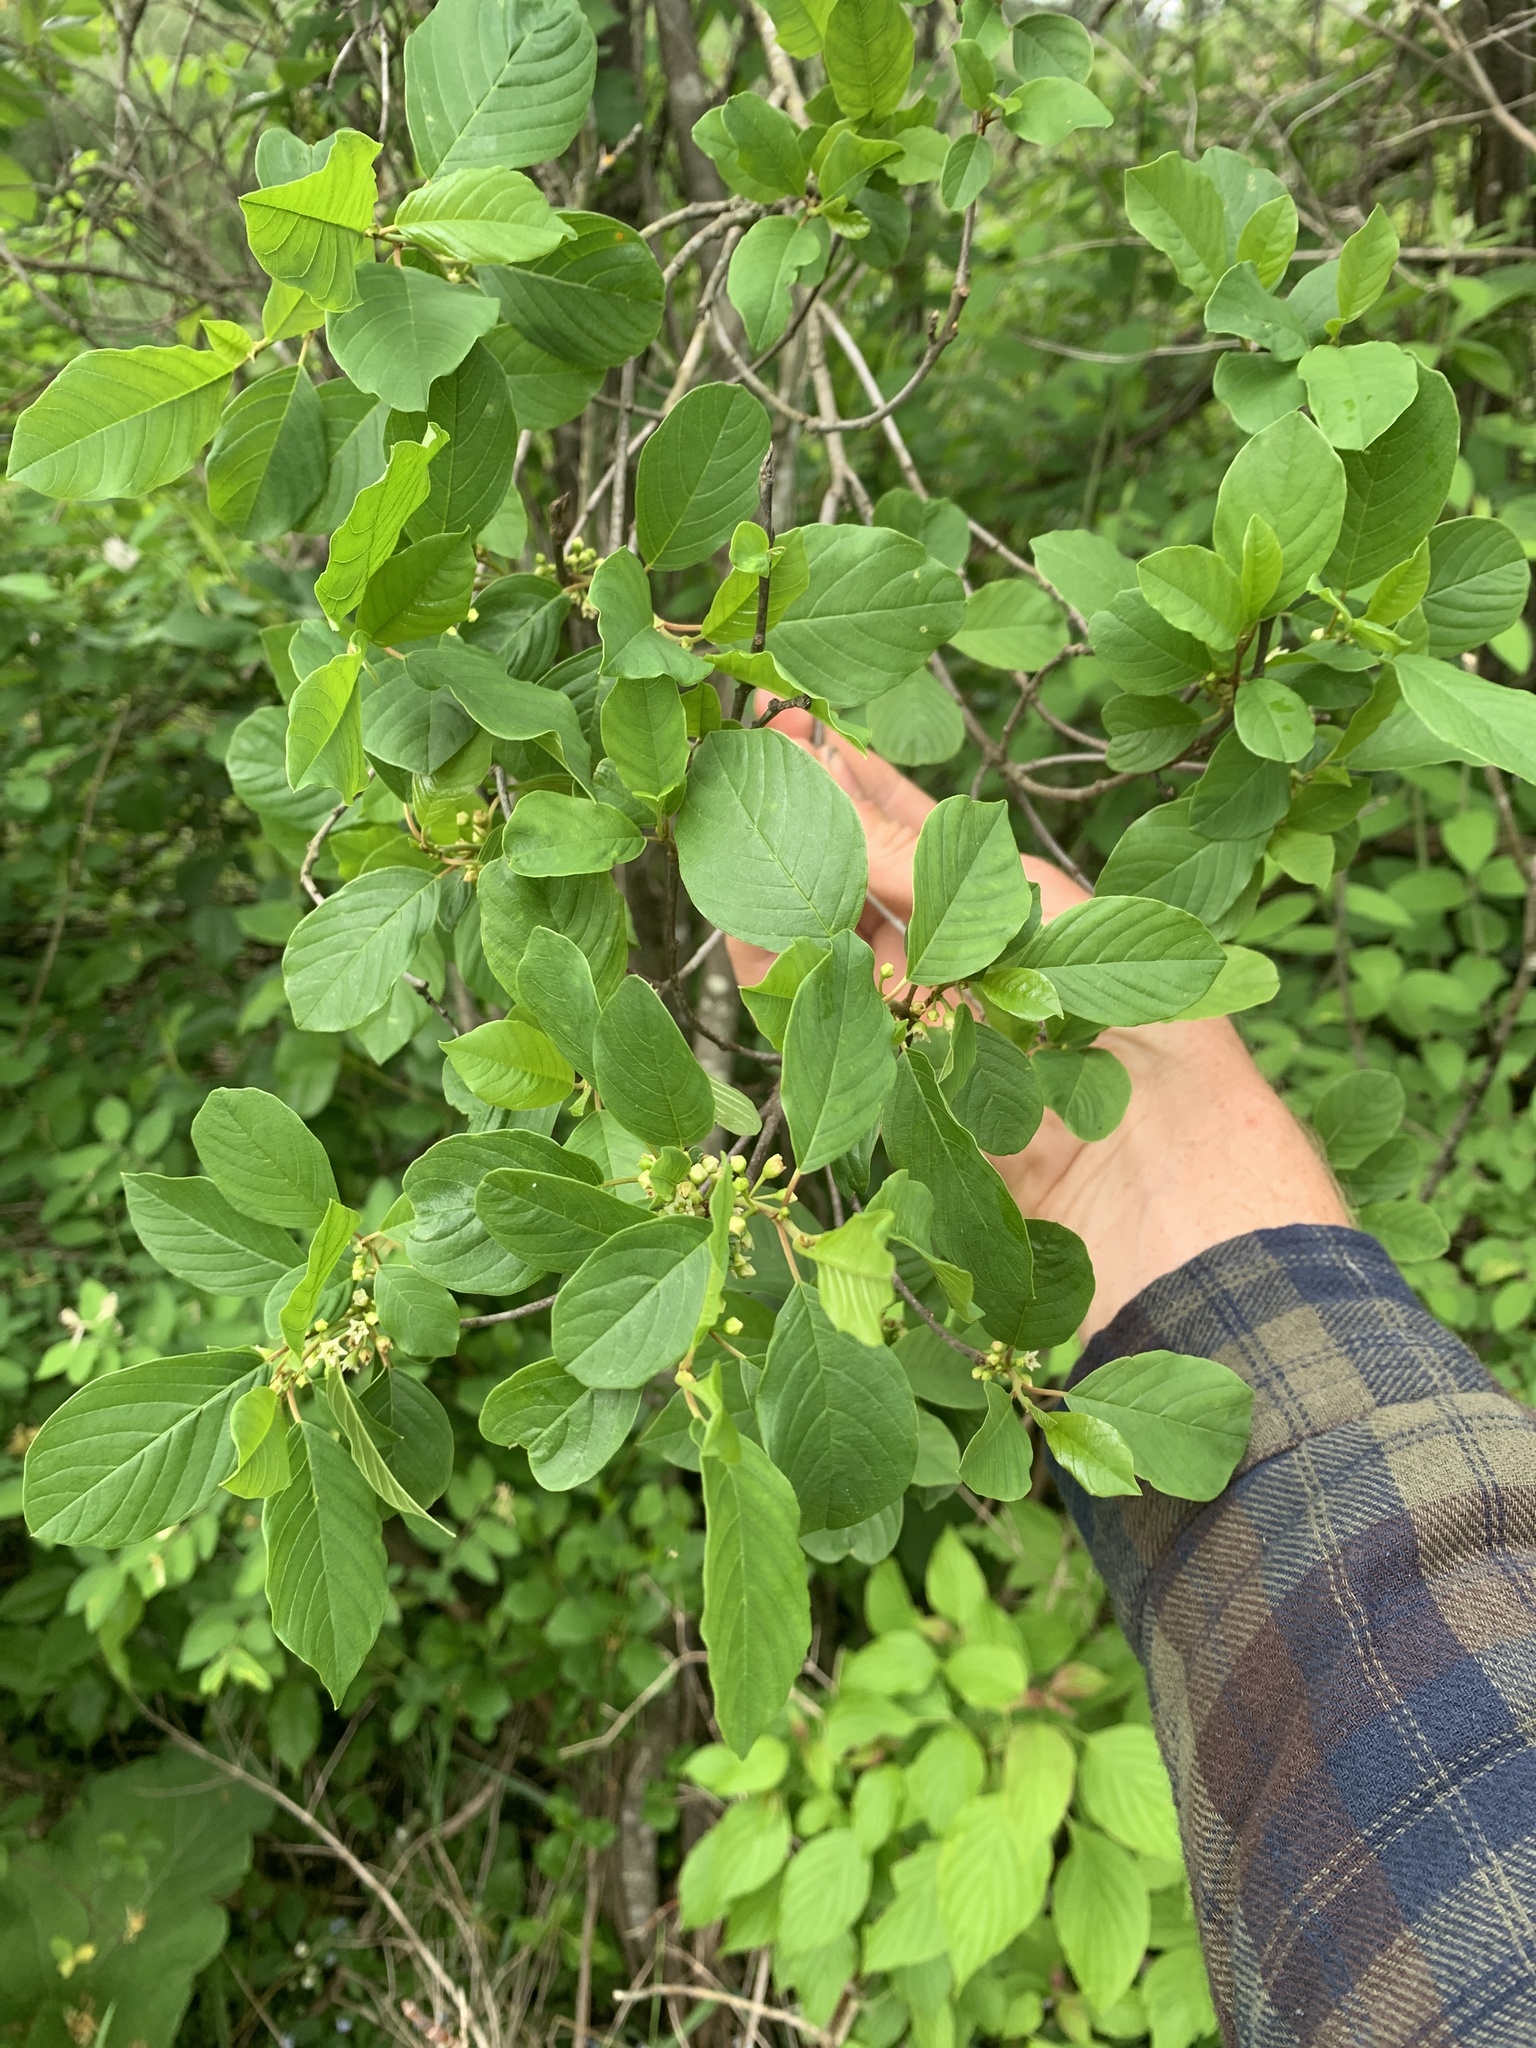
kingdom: Plantae
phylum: Tracheophyta
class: Magnoliopsida
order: Rosales
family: Rhamnaceae
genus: Frangula
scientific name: Frangula alnus
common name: Alder buckthorn
